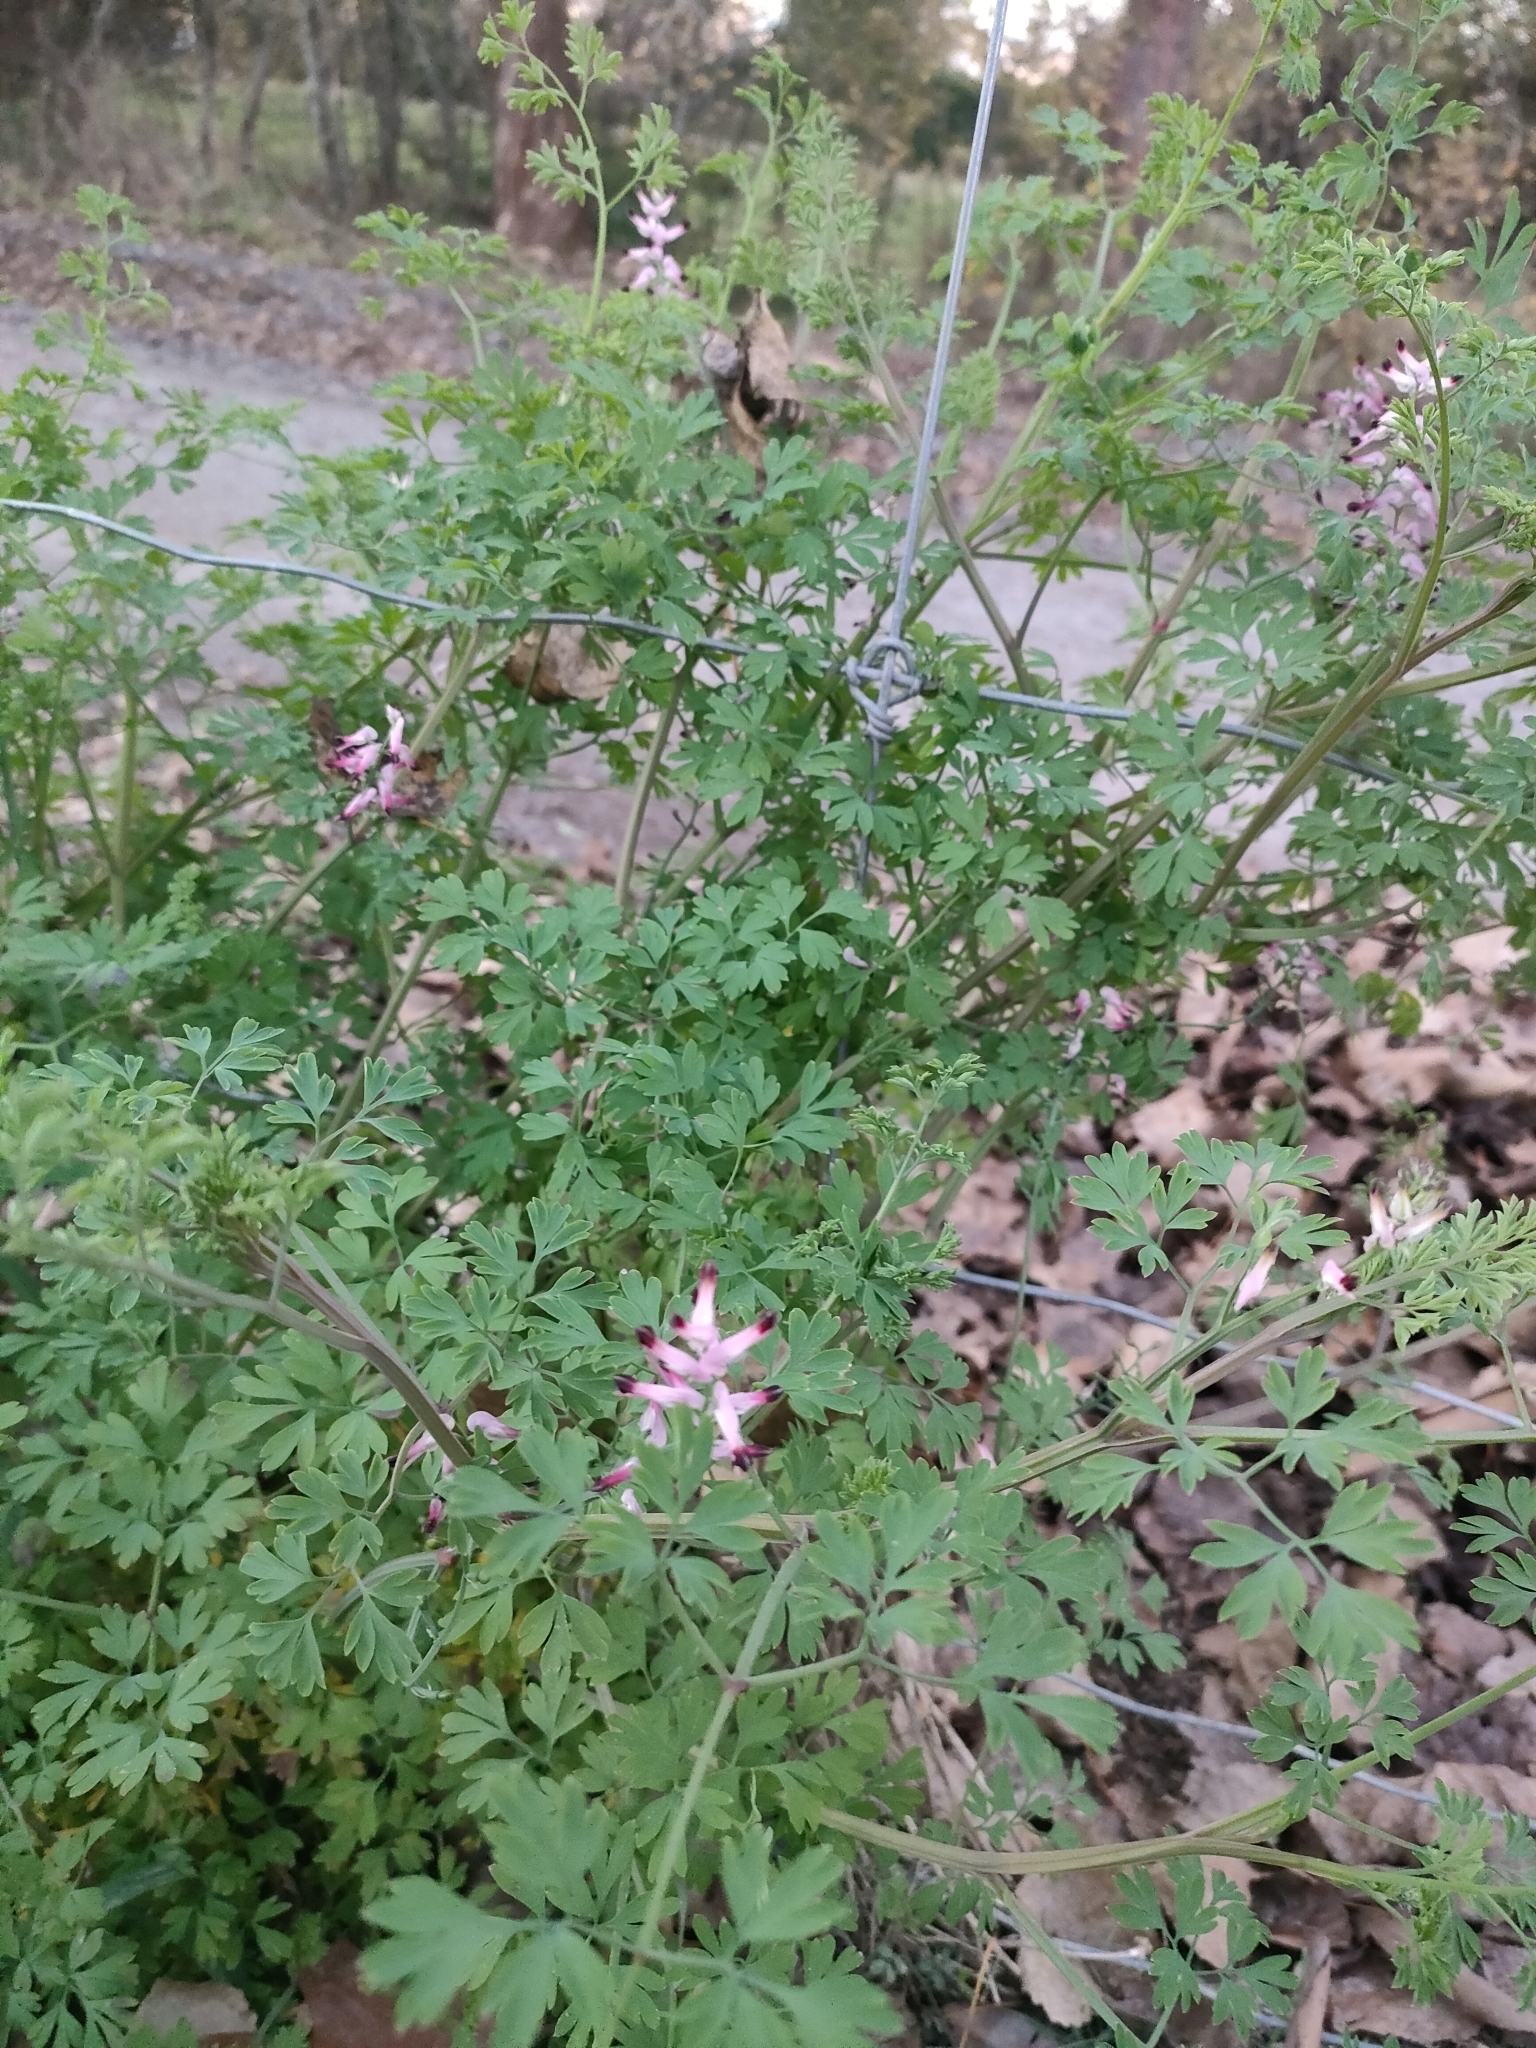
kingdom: Plantae
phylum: Tracheophyta
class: Magnoliopsida
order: Ranunculales
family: Papaveraceae
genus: Fumaria
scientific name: Fumaria muralis
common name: Common ramping-fumitory
